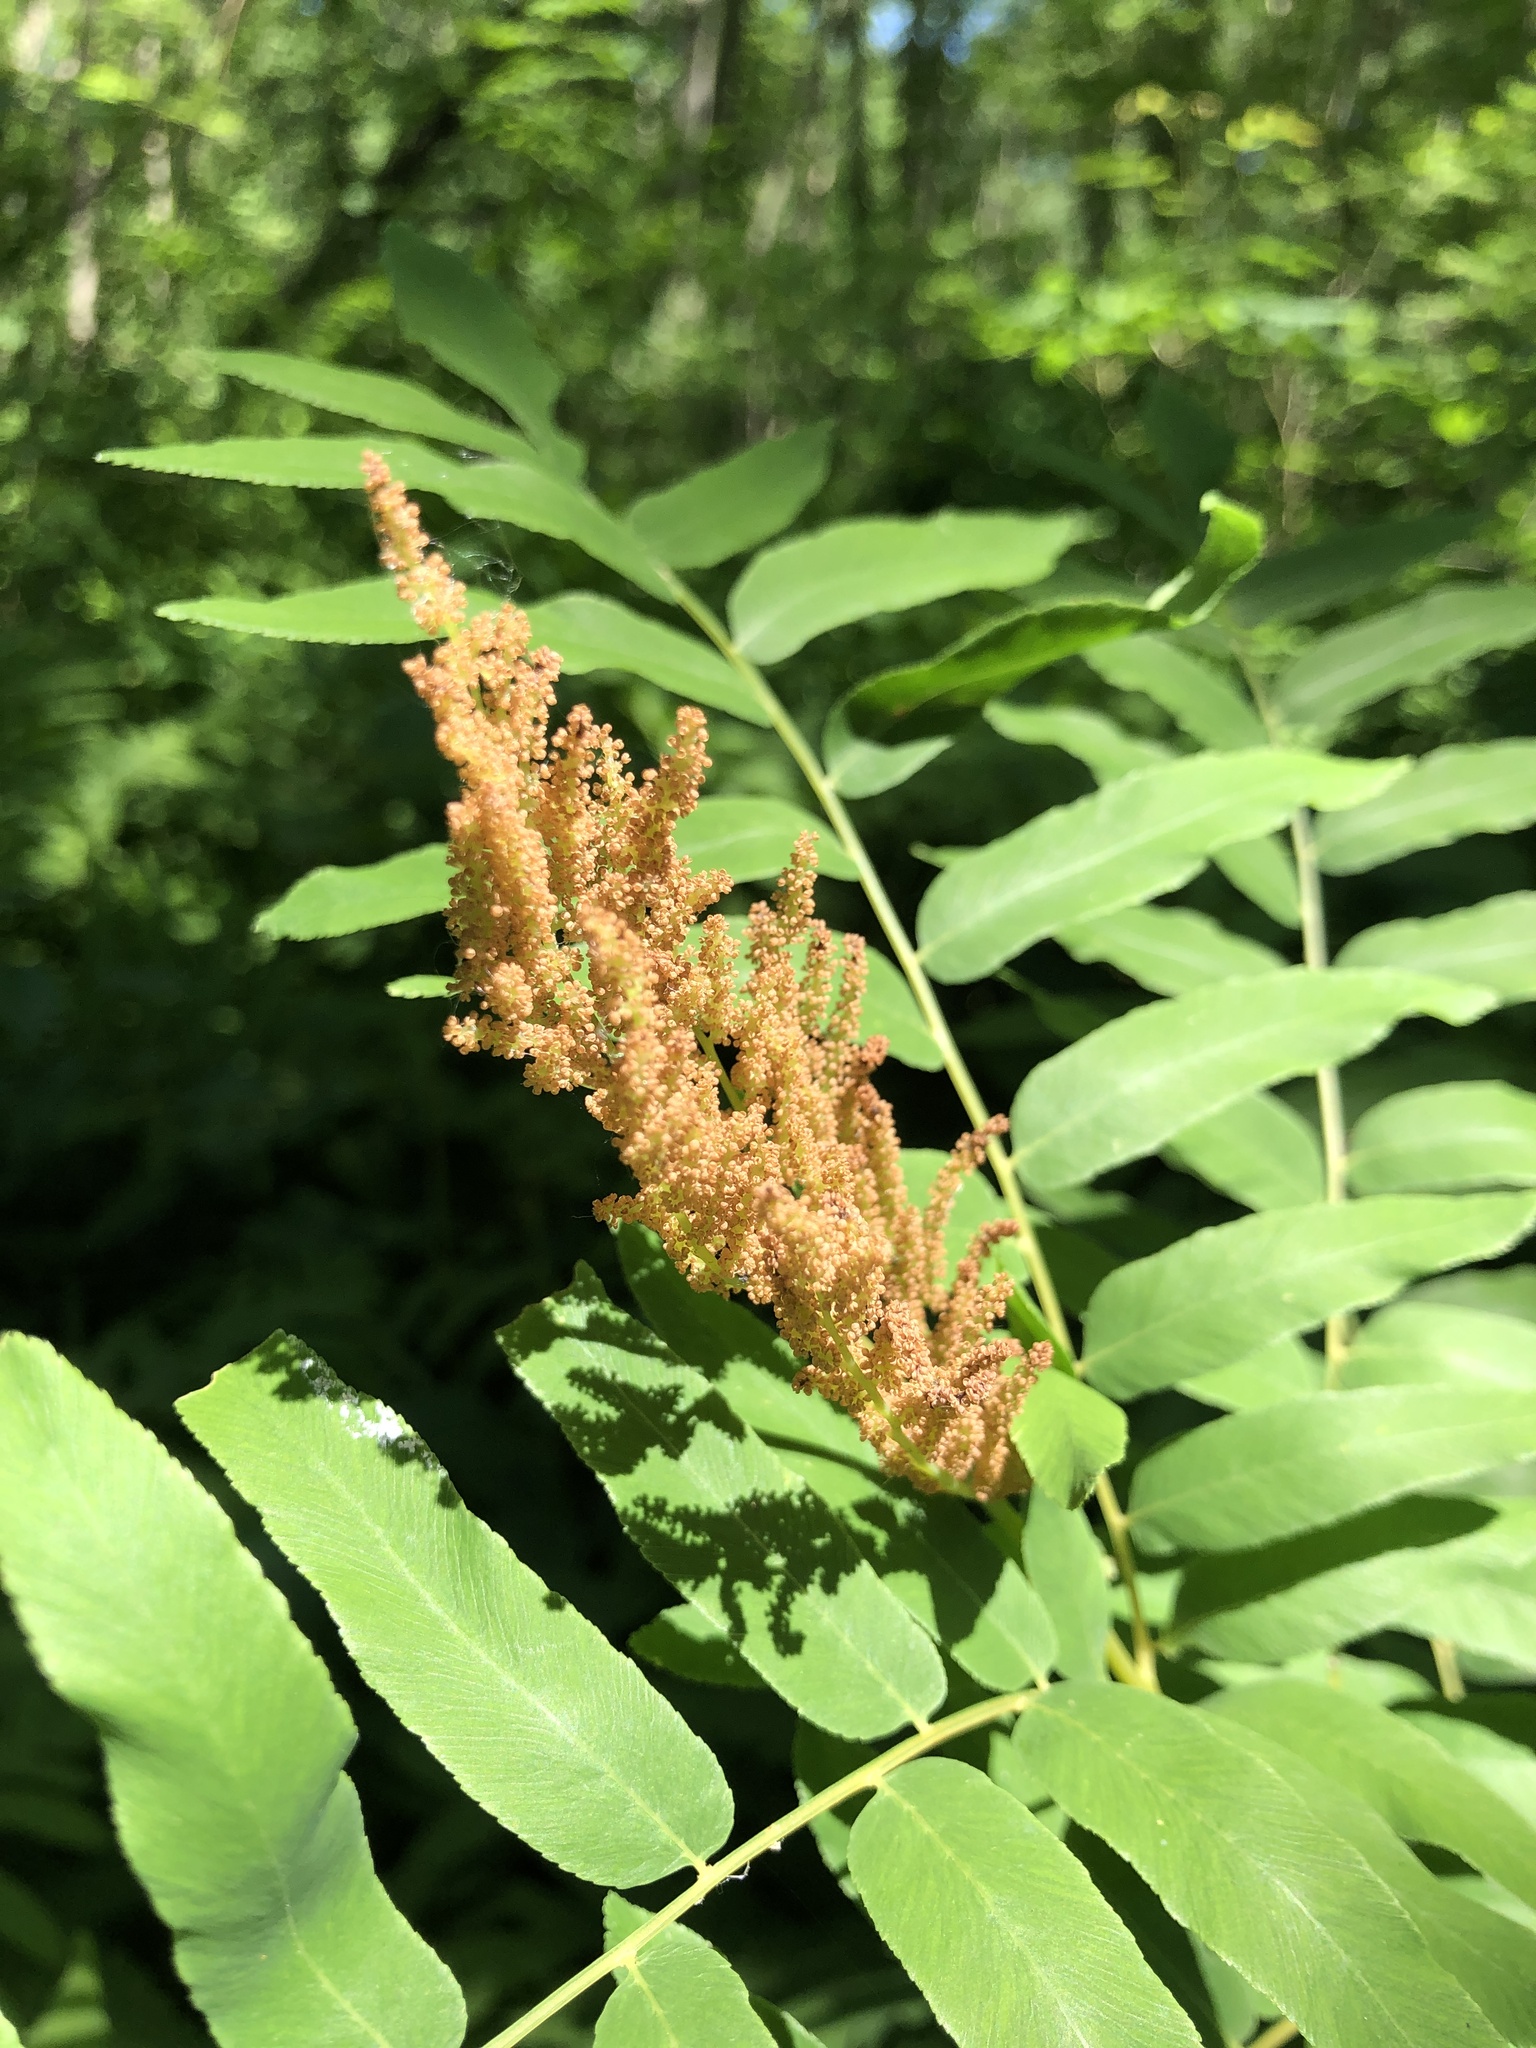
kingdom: Plantae
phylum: Tracheophyta
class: Polypodiopsida
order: Osmundales
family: Osmundaceae
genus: Osmunda
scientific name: Osmunda spectabilis
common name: American royal fern
